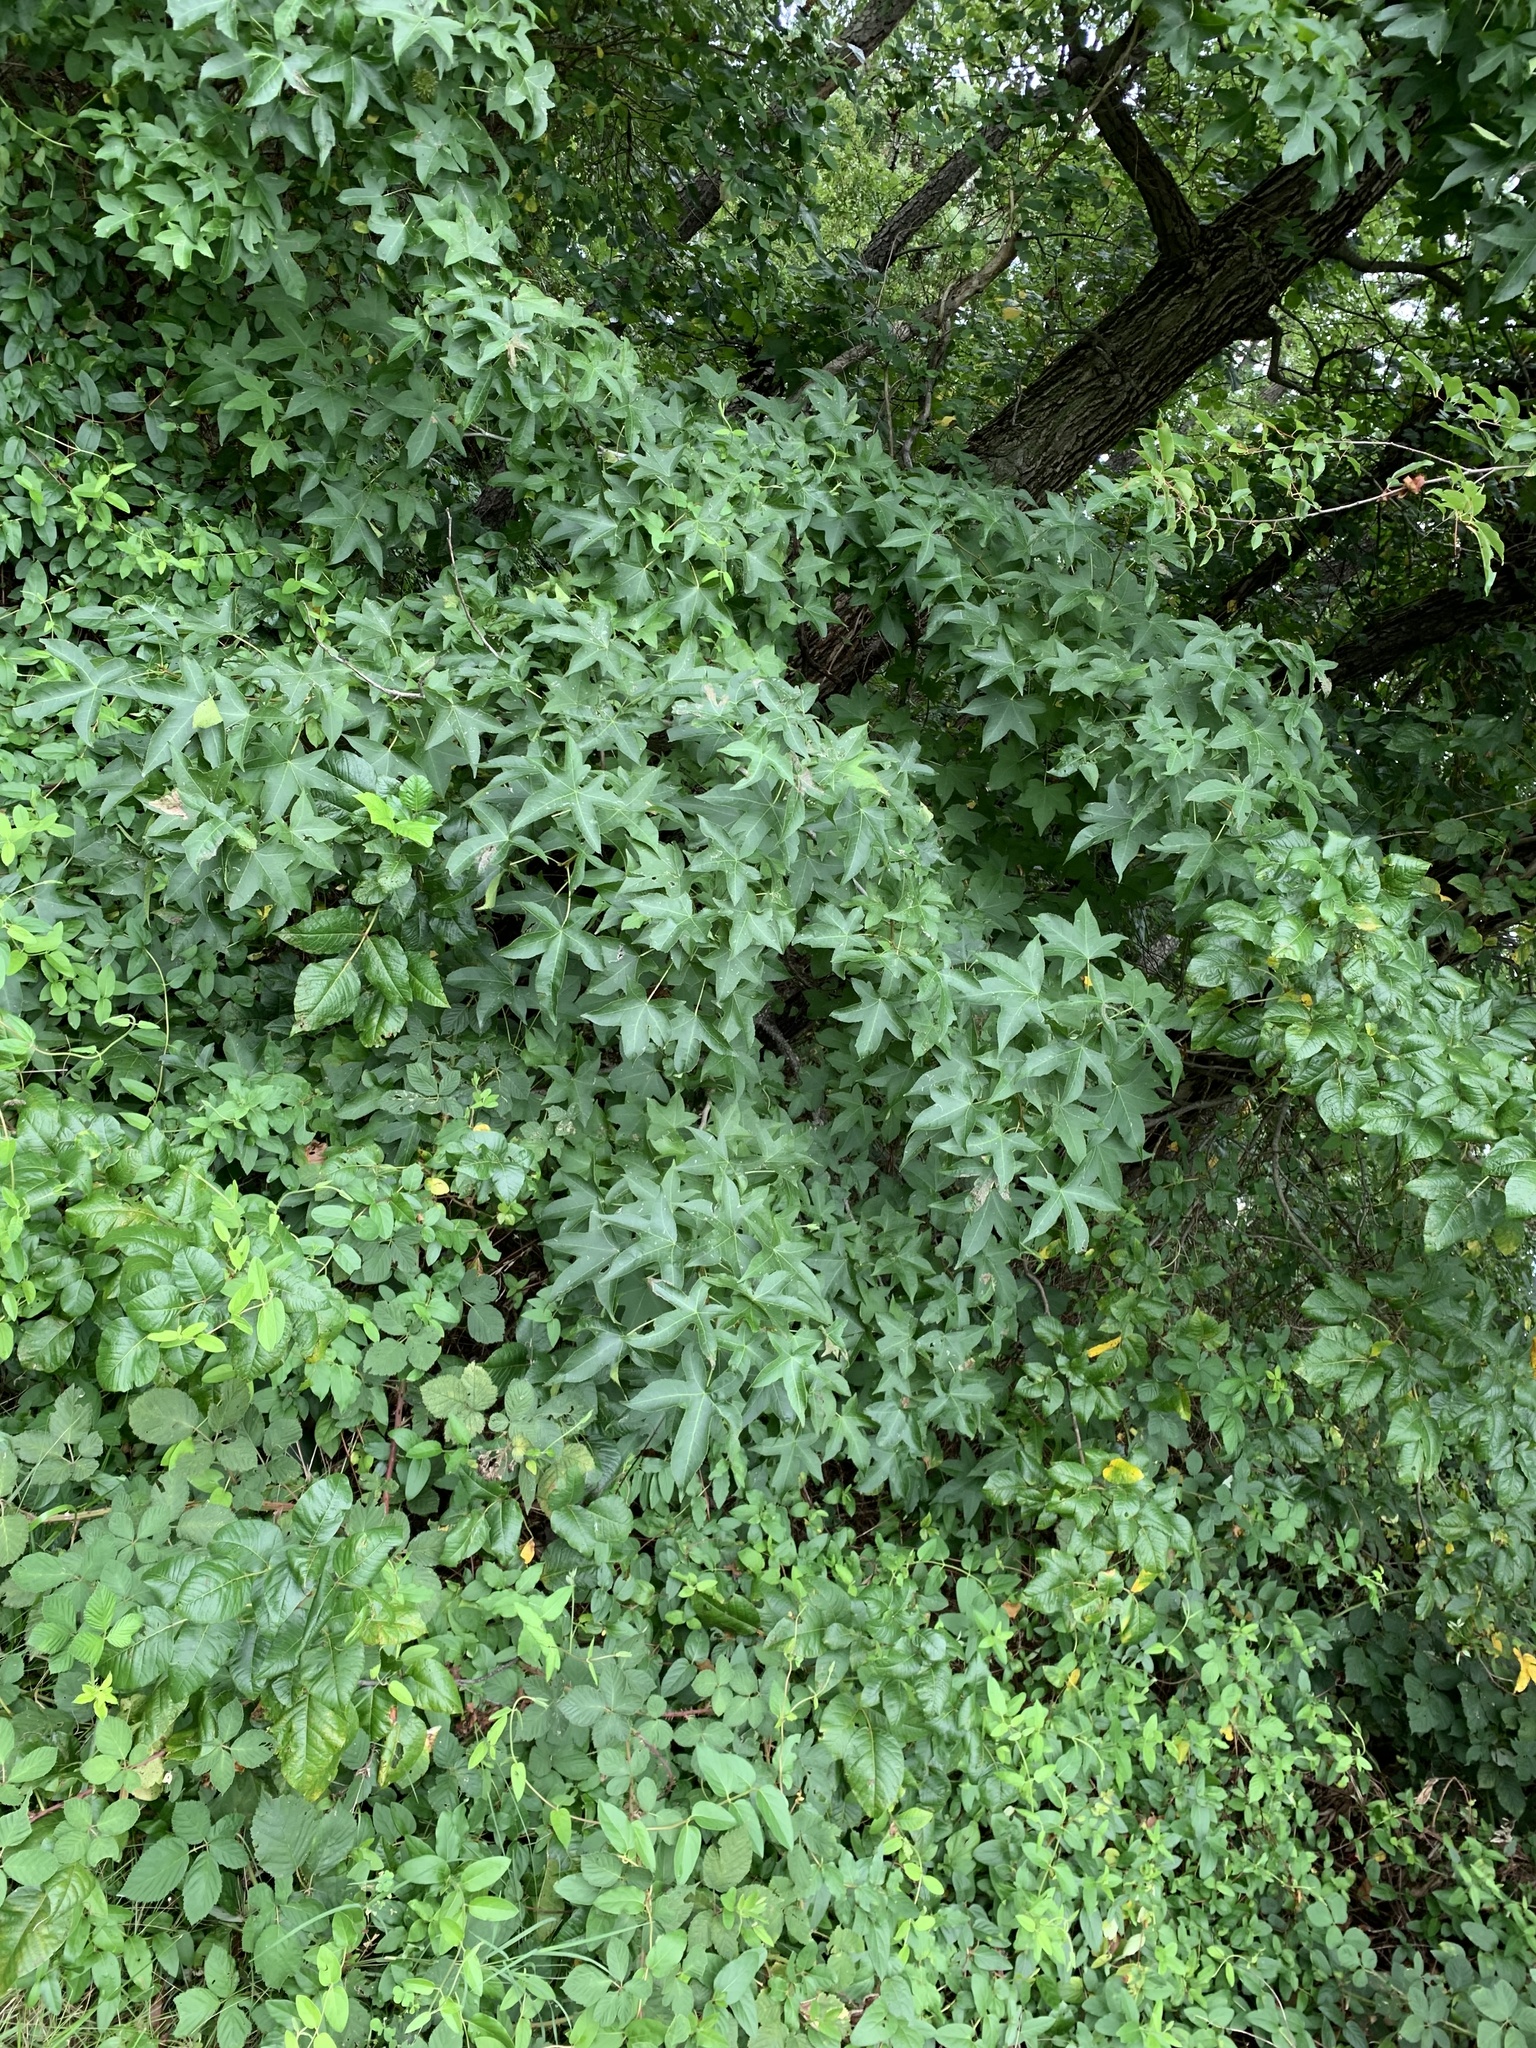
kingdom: Plantae
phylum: Tracheophyta
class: Magnoliopsida
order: Saxifragales
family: Altingiaceae
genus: Liquidambar
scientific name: Liquidambar styraciflua
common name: Sweet gum
